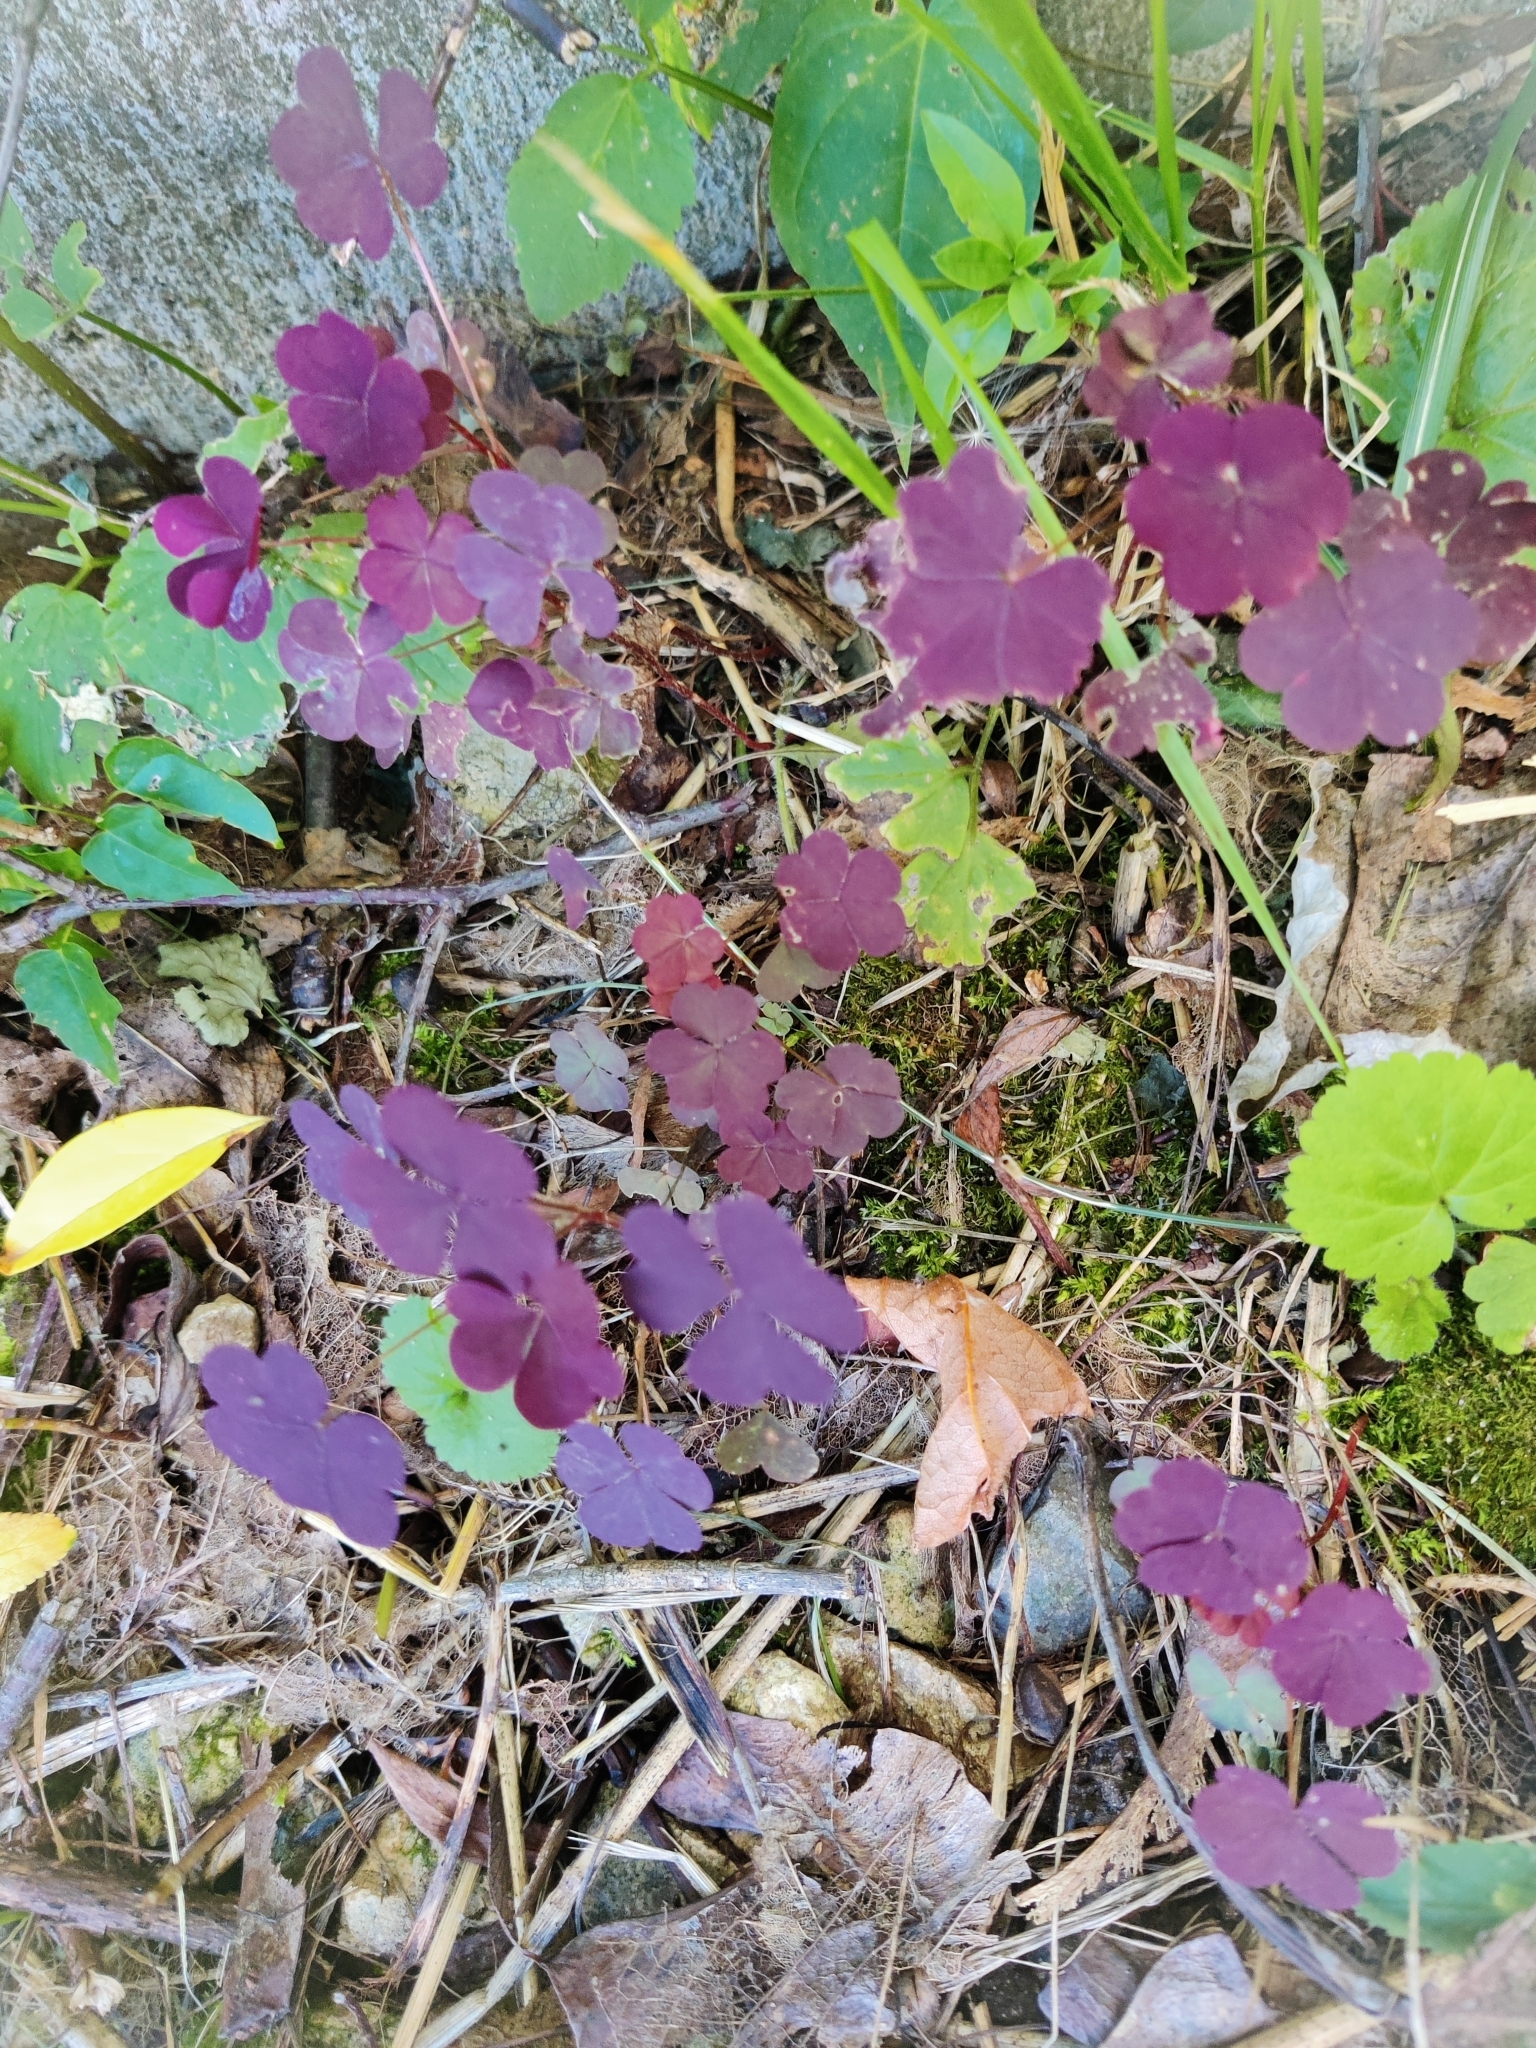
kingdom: Plantae
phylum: Tracheophyta
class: Magnoliopsida
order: Oxalidales
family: Oxalidaceae
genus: Oxalis
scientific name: Oxalis stricta
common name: Upright yellow-sorrel
